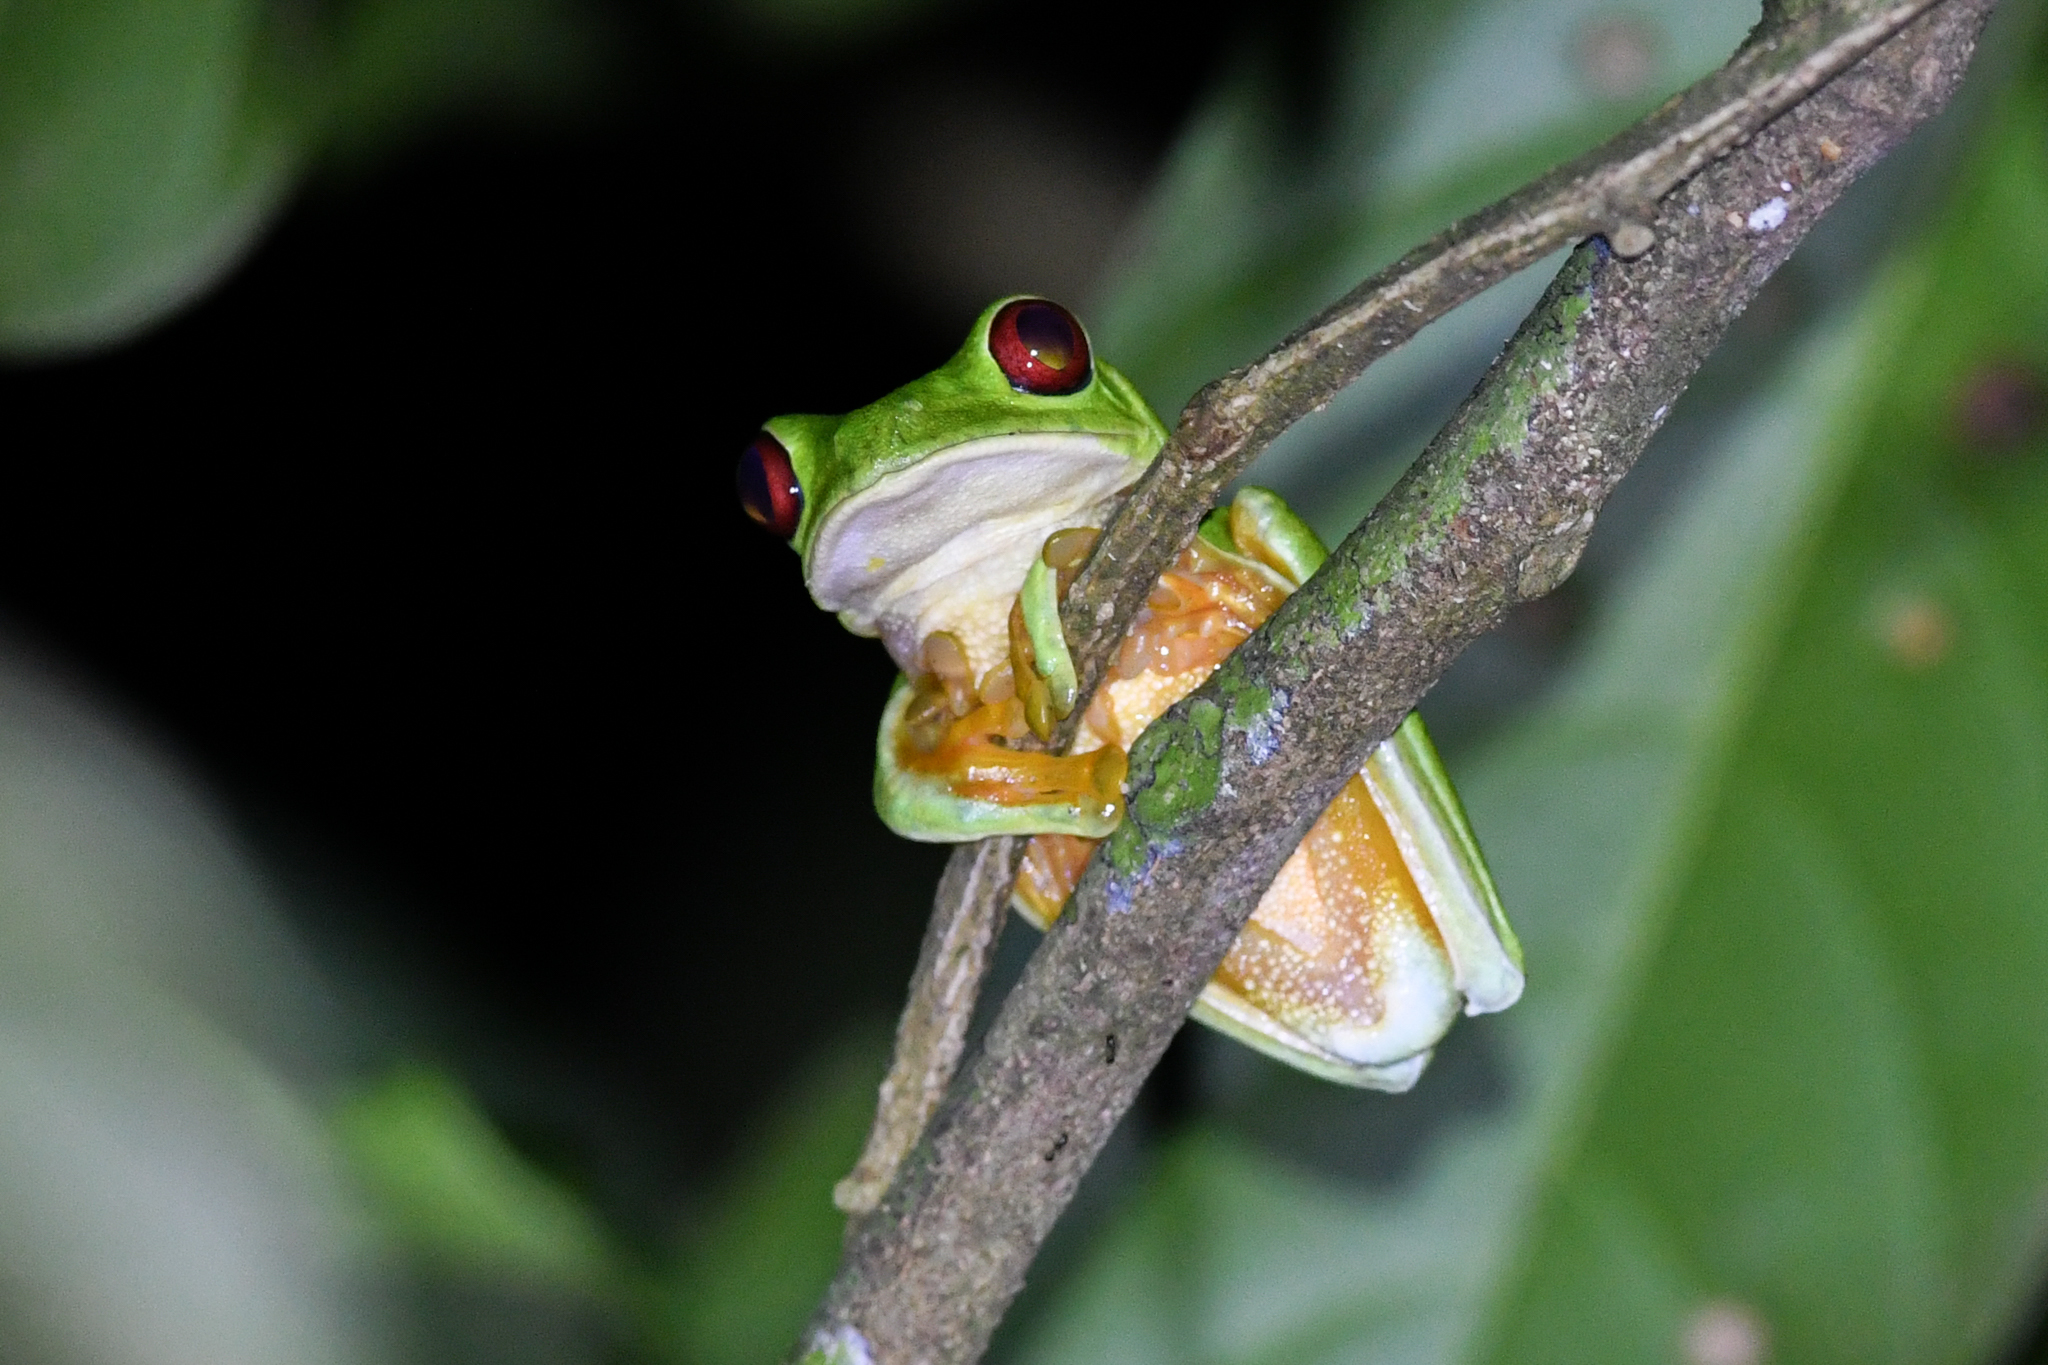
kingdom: Animalia
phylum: Chordata
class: Amphibia
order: Anura
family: Phyllomedusidae
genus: Agalychnis
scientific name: Agalychnis callidryas
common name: Red-eyed treefrog
